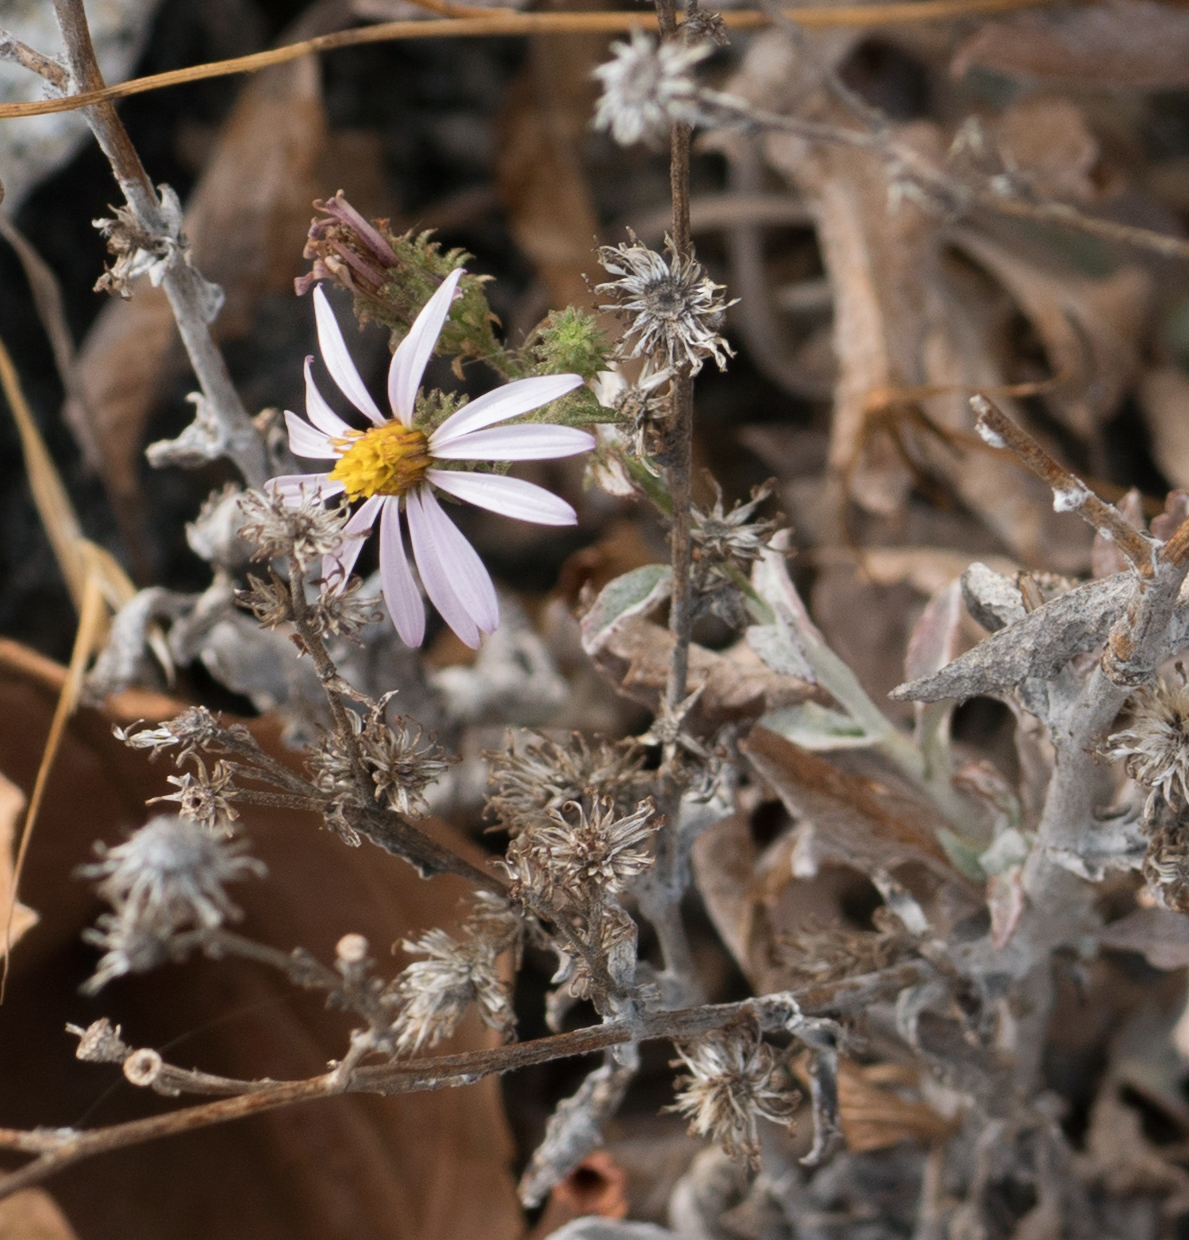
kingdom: Plantae
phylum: Tracheophyta
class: Magnoliopsida
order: Asterales
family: Asteraceae
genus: Corethrogyne
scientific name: Corethrogyne filaginifolia
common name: Sand-aster
